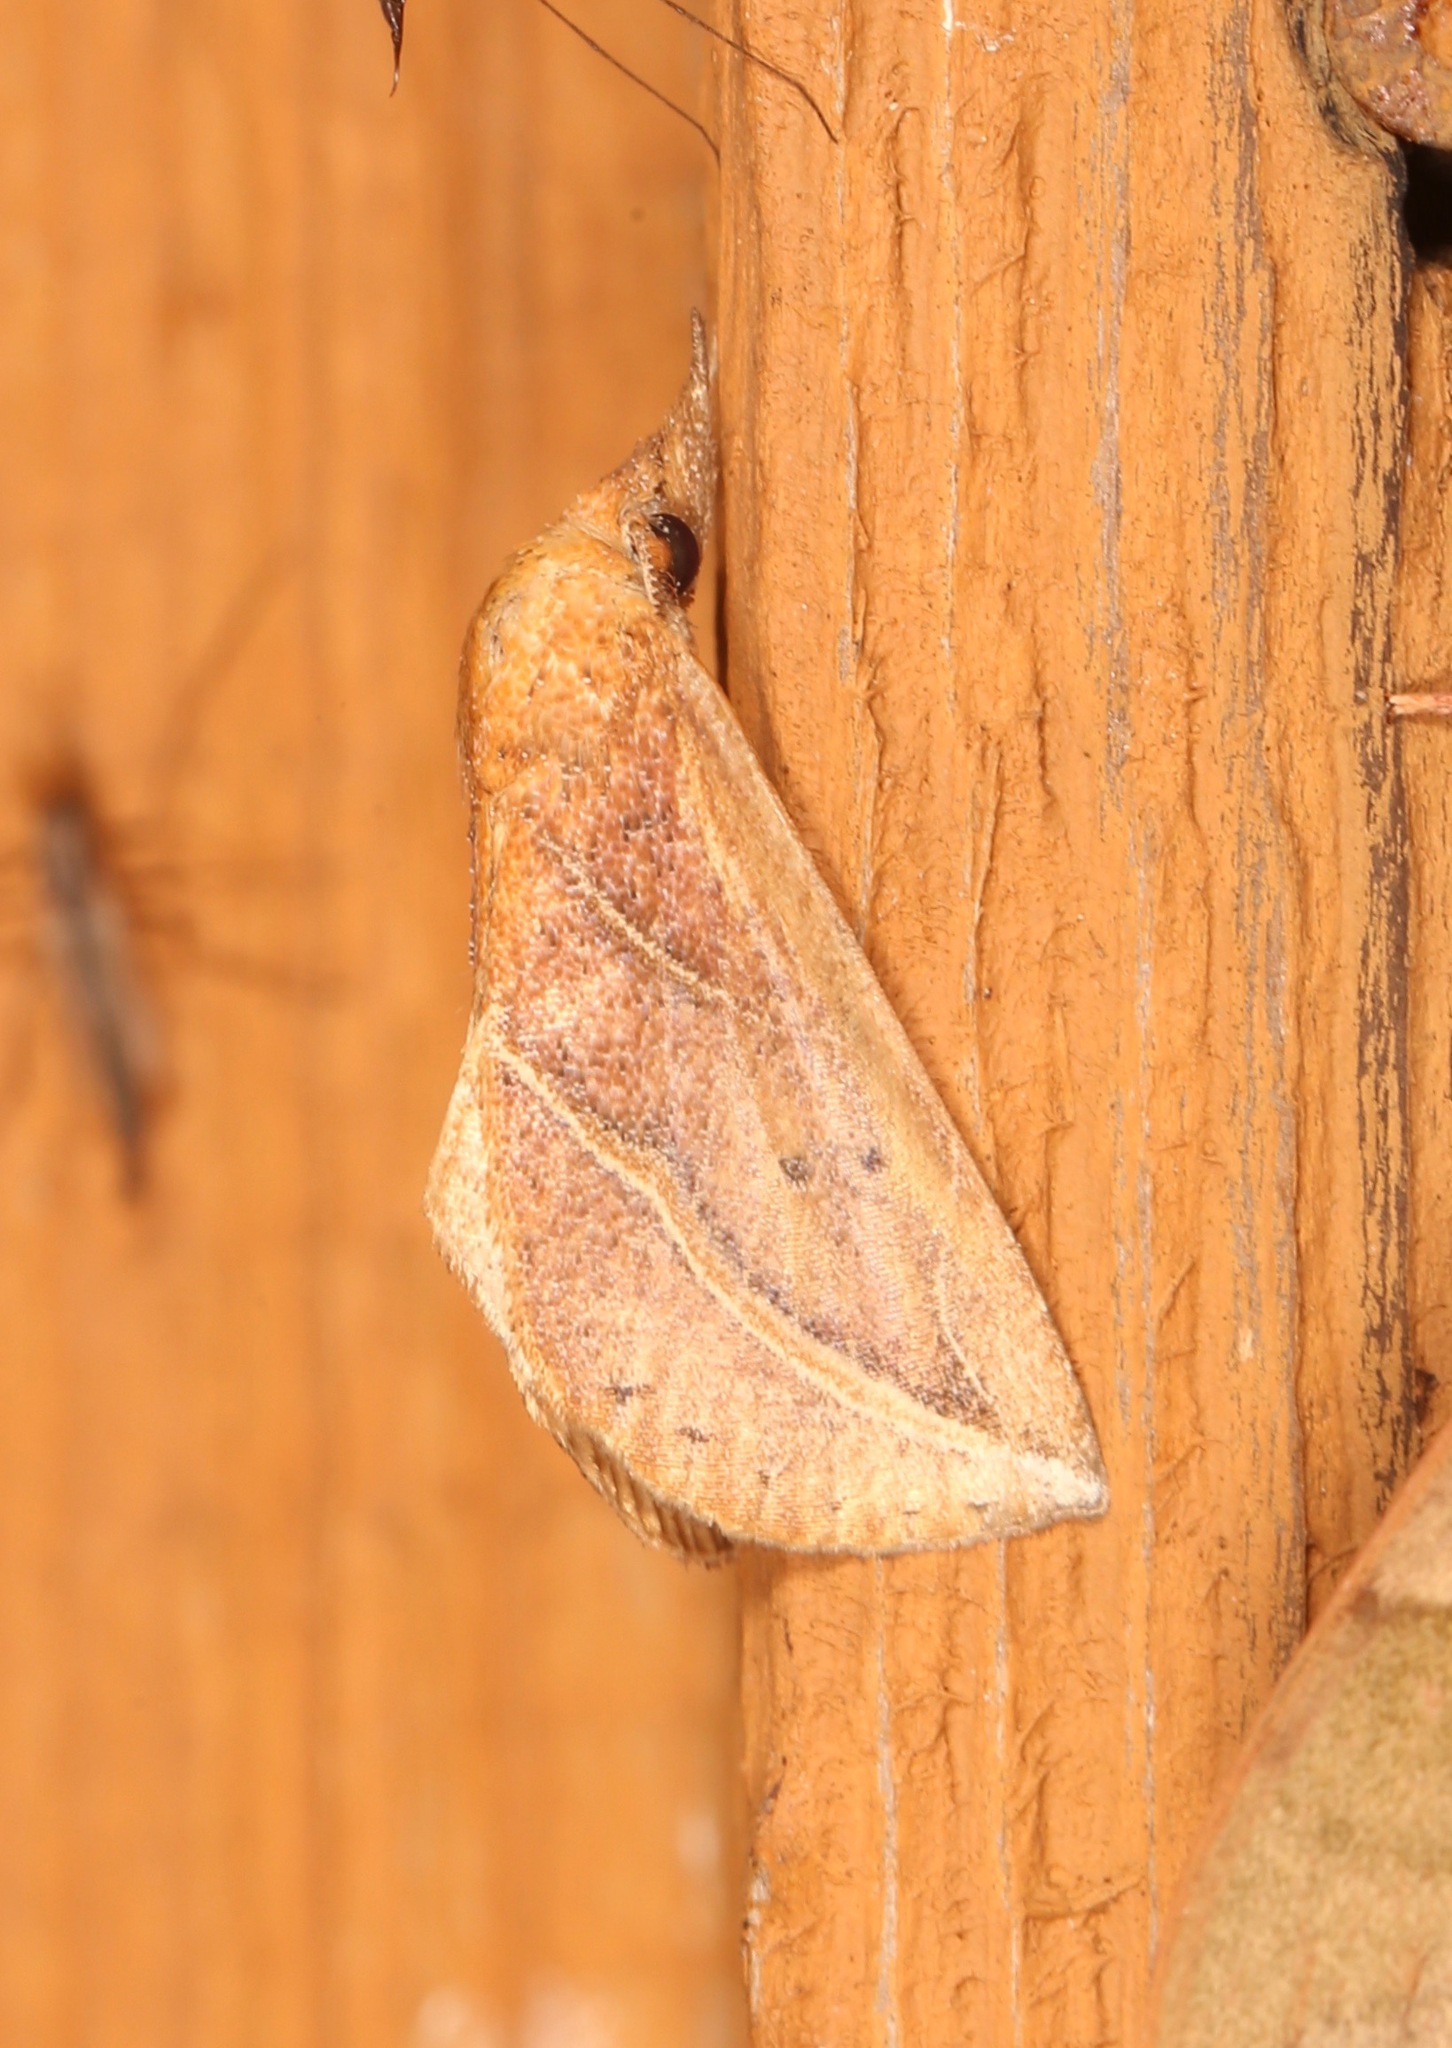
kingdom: Animalia
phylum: Arthropoda
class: Insecta
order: Lepidoptera
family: Erebidae
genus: Phyprosopus
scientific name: Phyprosopus callitrichoides
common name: Curved-lined owlet
